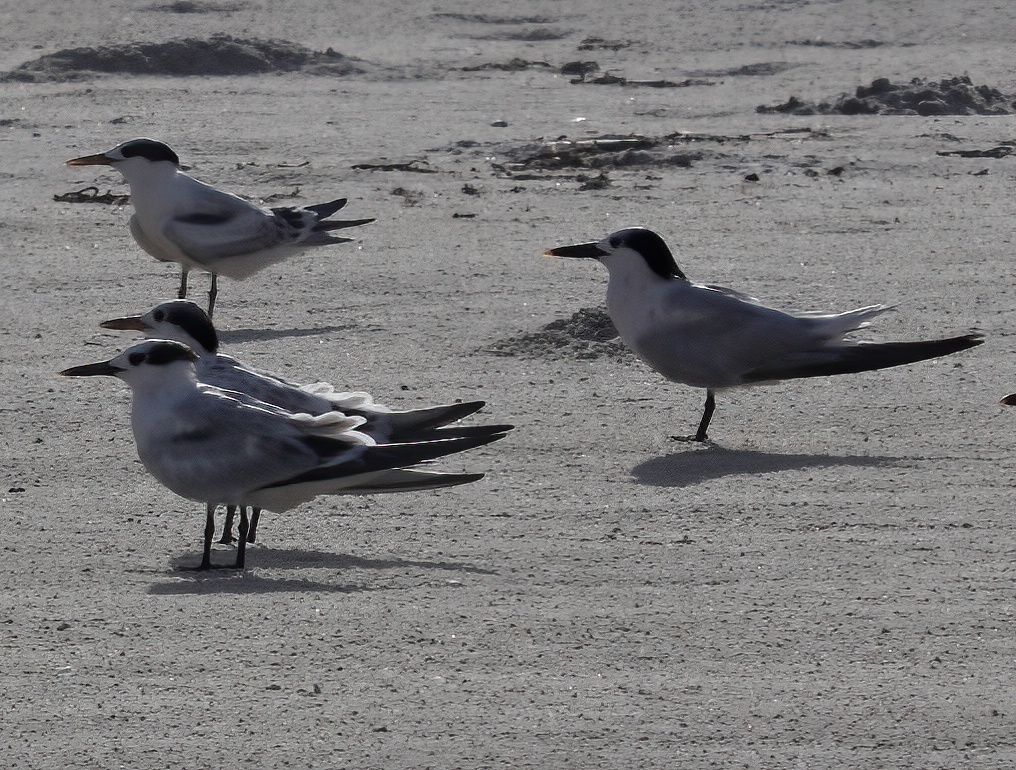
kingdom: Animalia
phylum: Chordata
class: Aves
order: Charadriiformes
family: Laridae
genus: Thalasseus
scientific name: Thalasseus sandvicensis
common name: Sandwich tern
